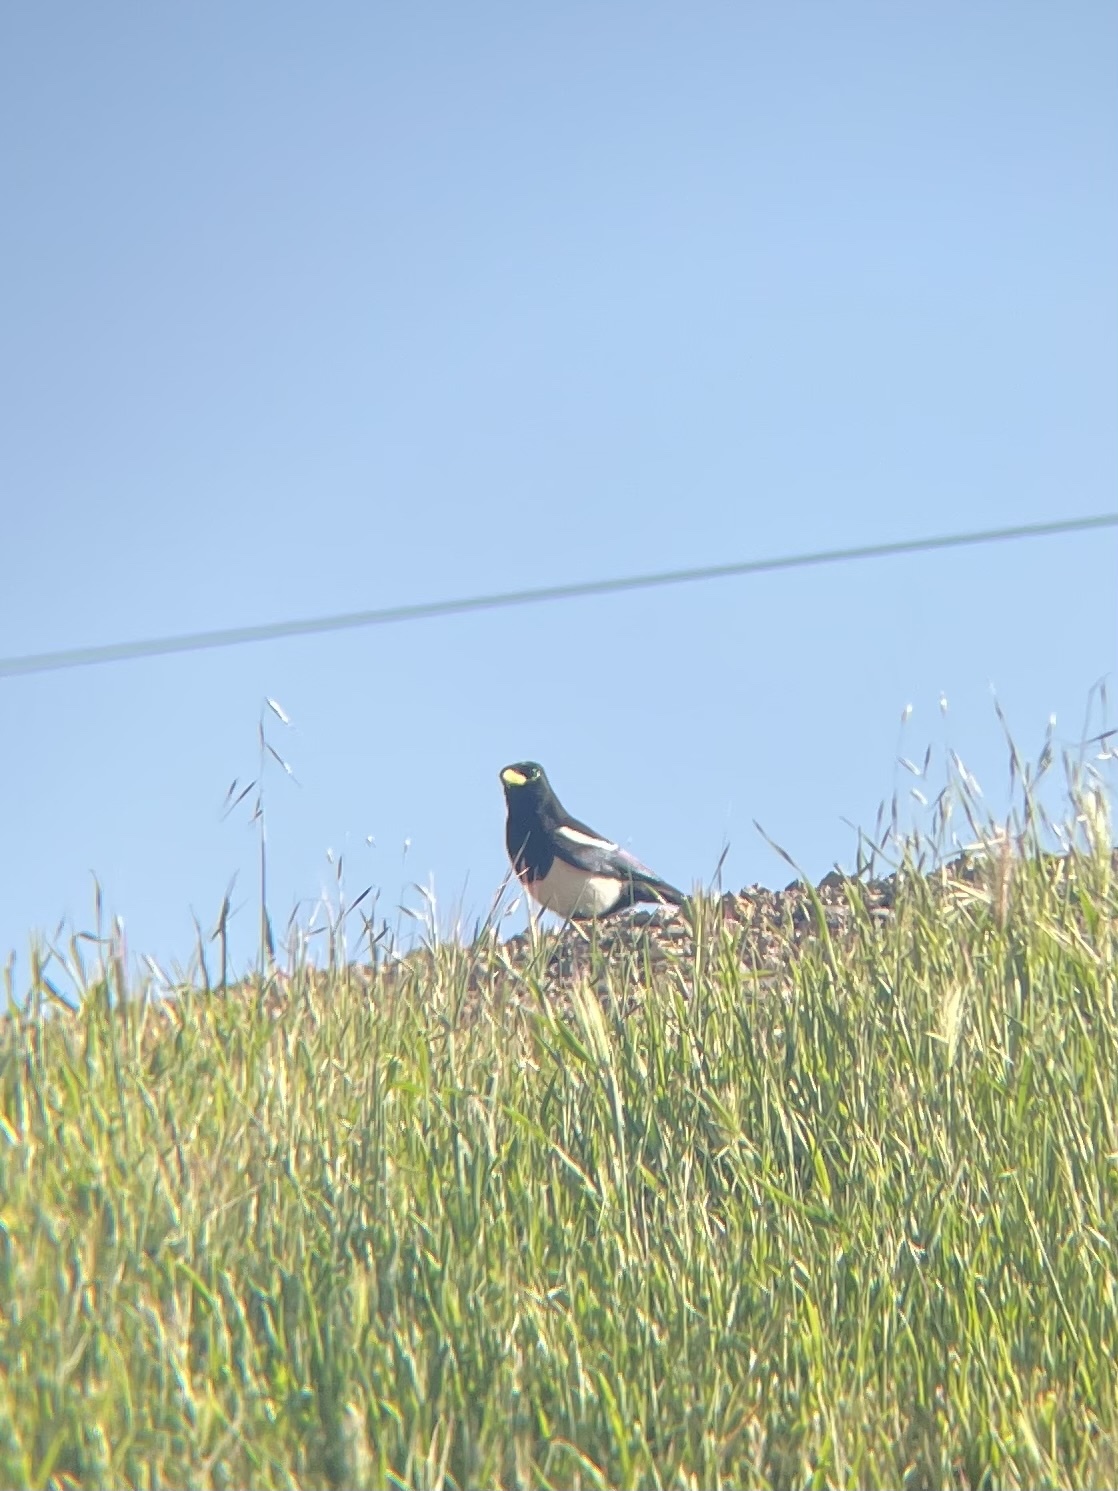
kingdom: Animalia
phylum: Chordata
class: Aves
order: Passeriformes
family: Corvidae
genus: Pica
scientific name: Pica nuttalli
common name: Yellow-billed magpie
